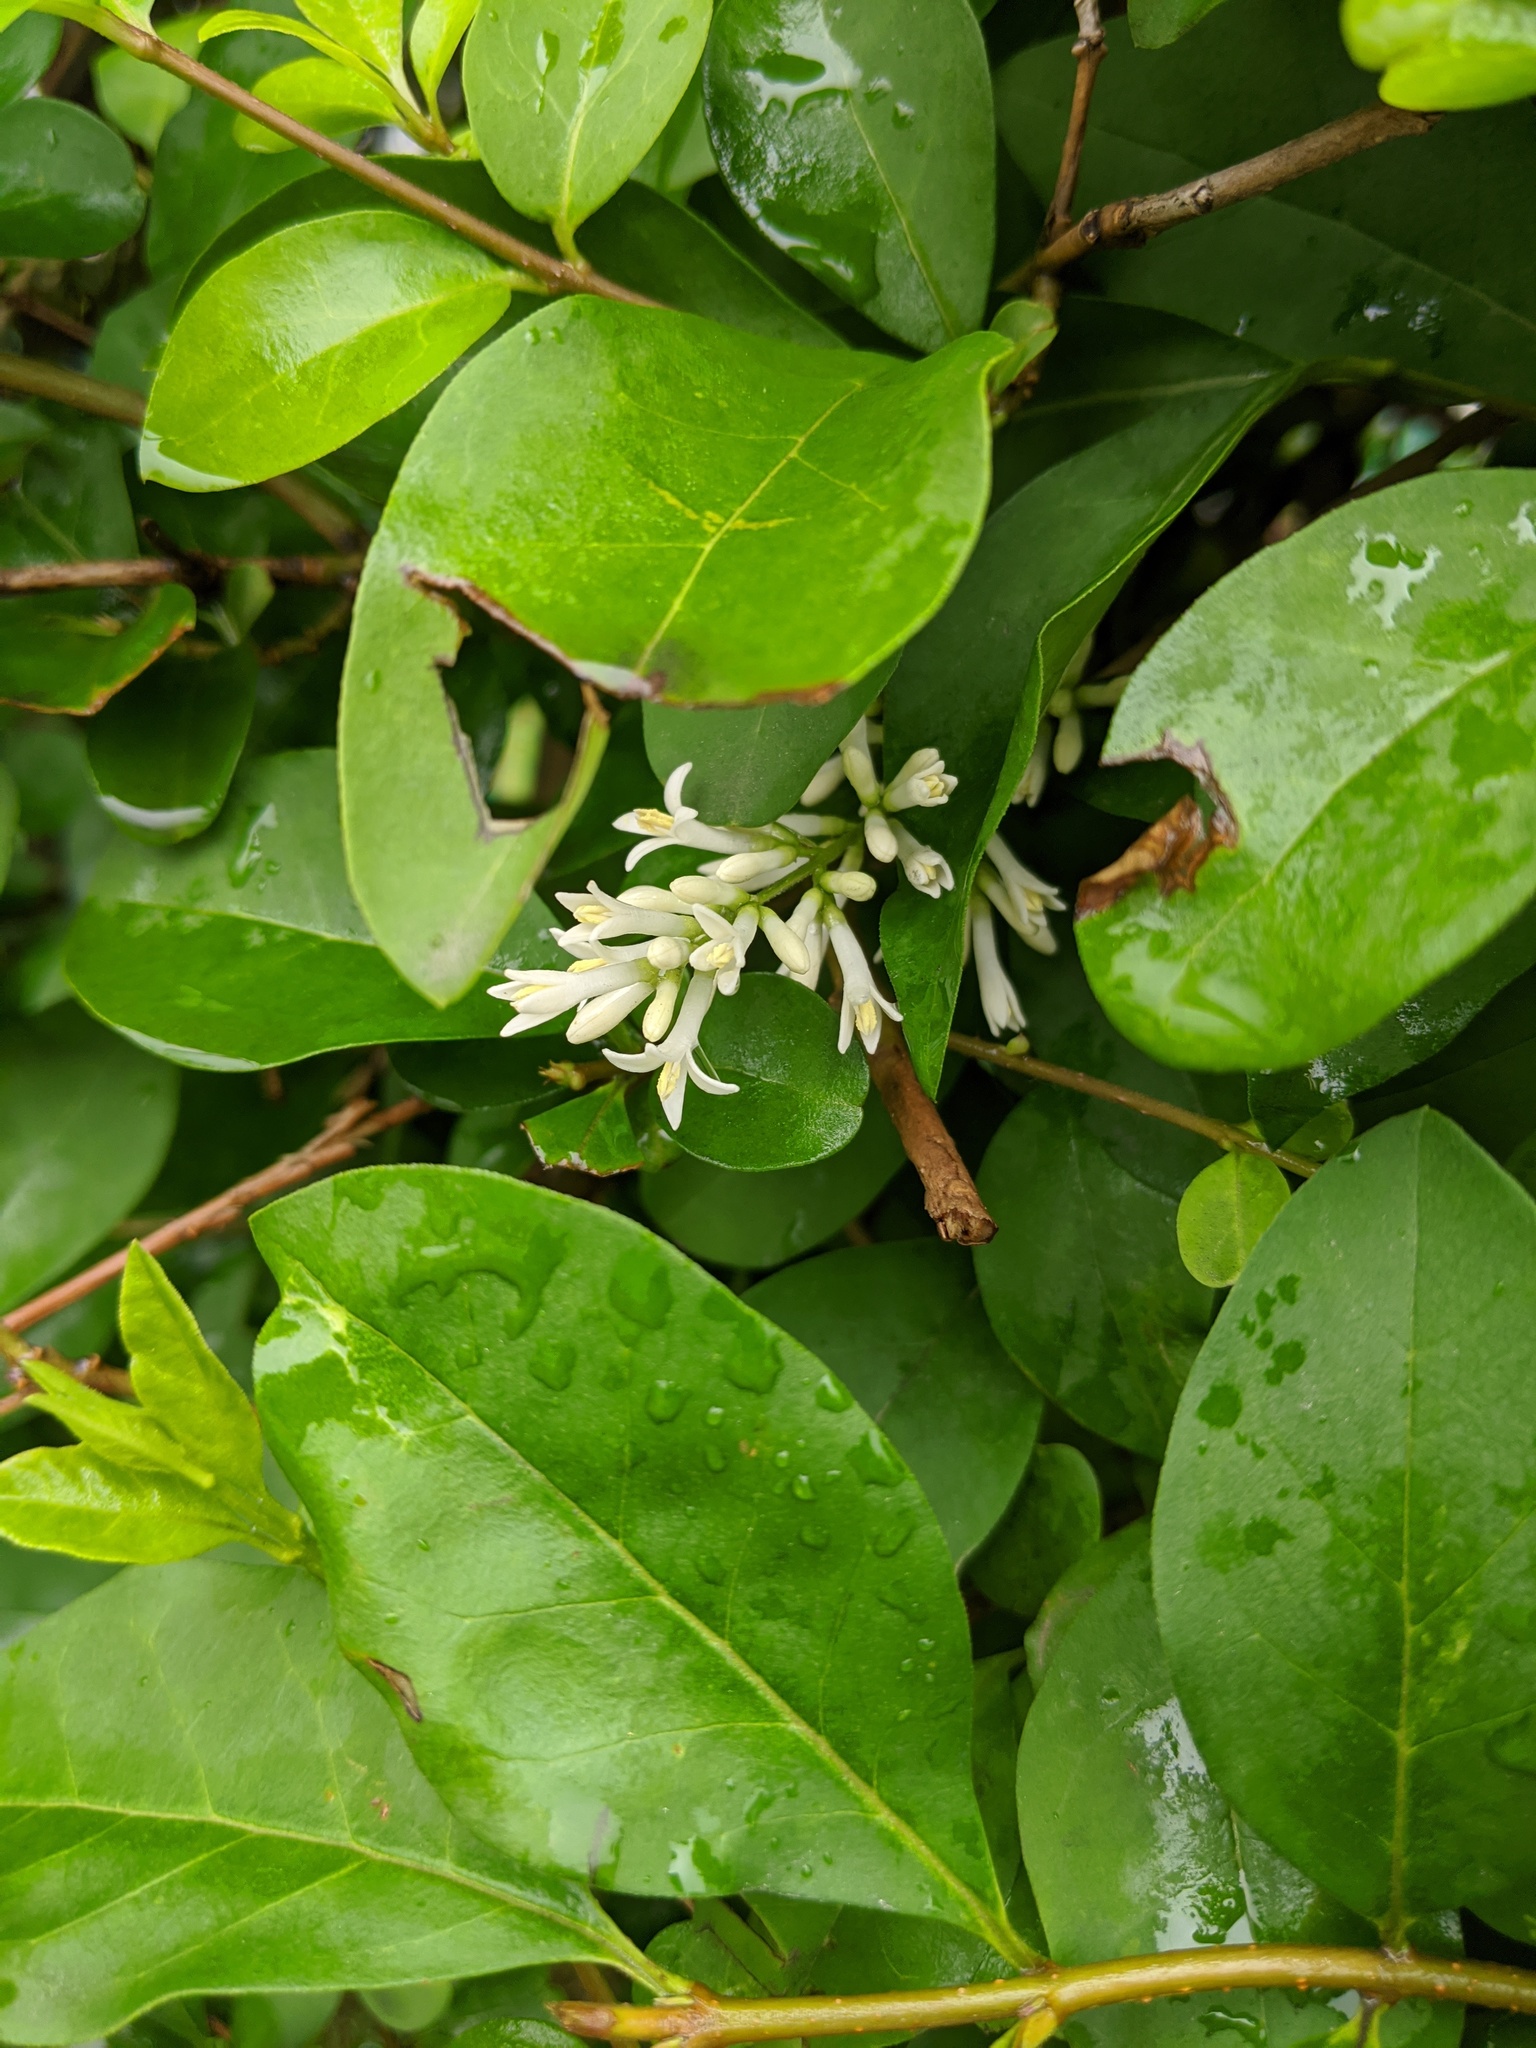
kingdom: Plantae
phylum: Tracheophyta
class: Magnoliopsida
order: Lamiales
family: Oleaceae
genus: Ligustrum
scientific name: Ligustrum ovalifolium
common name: California privet
